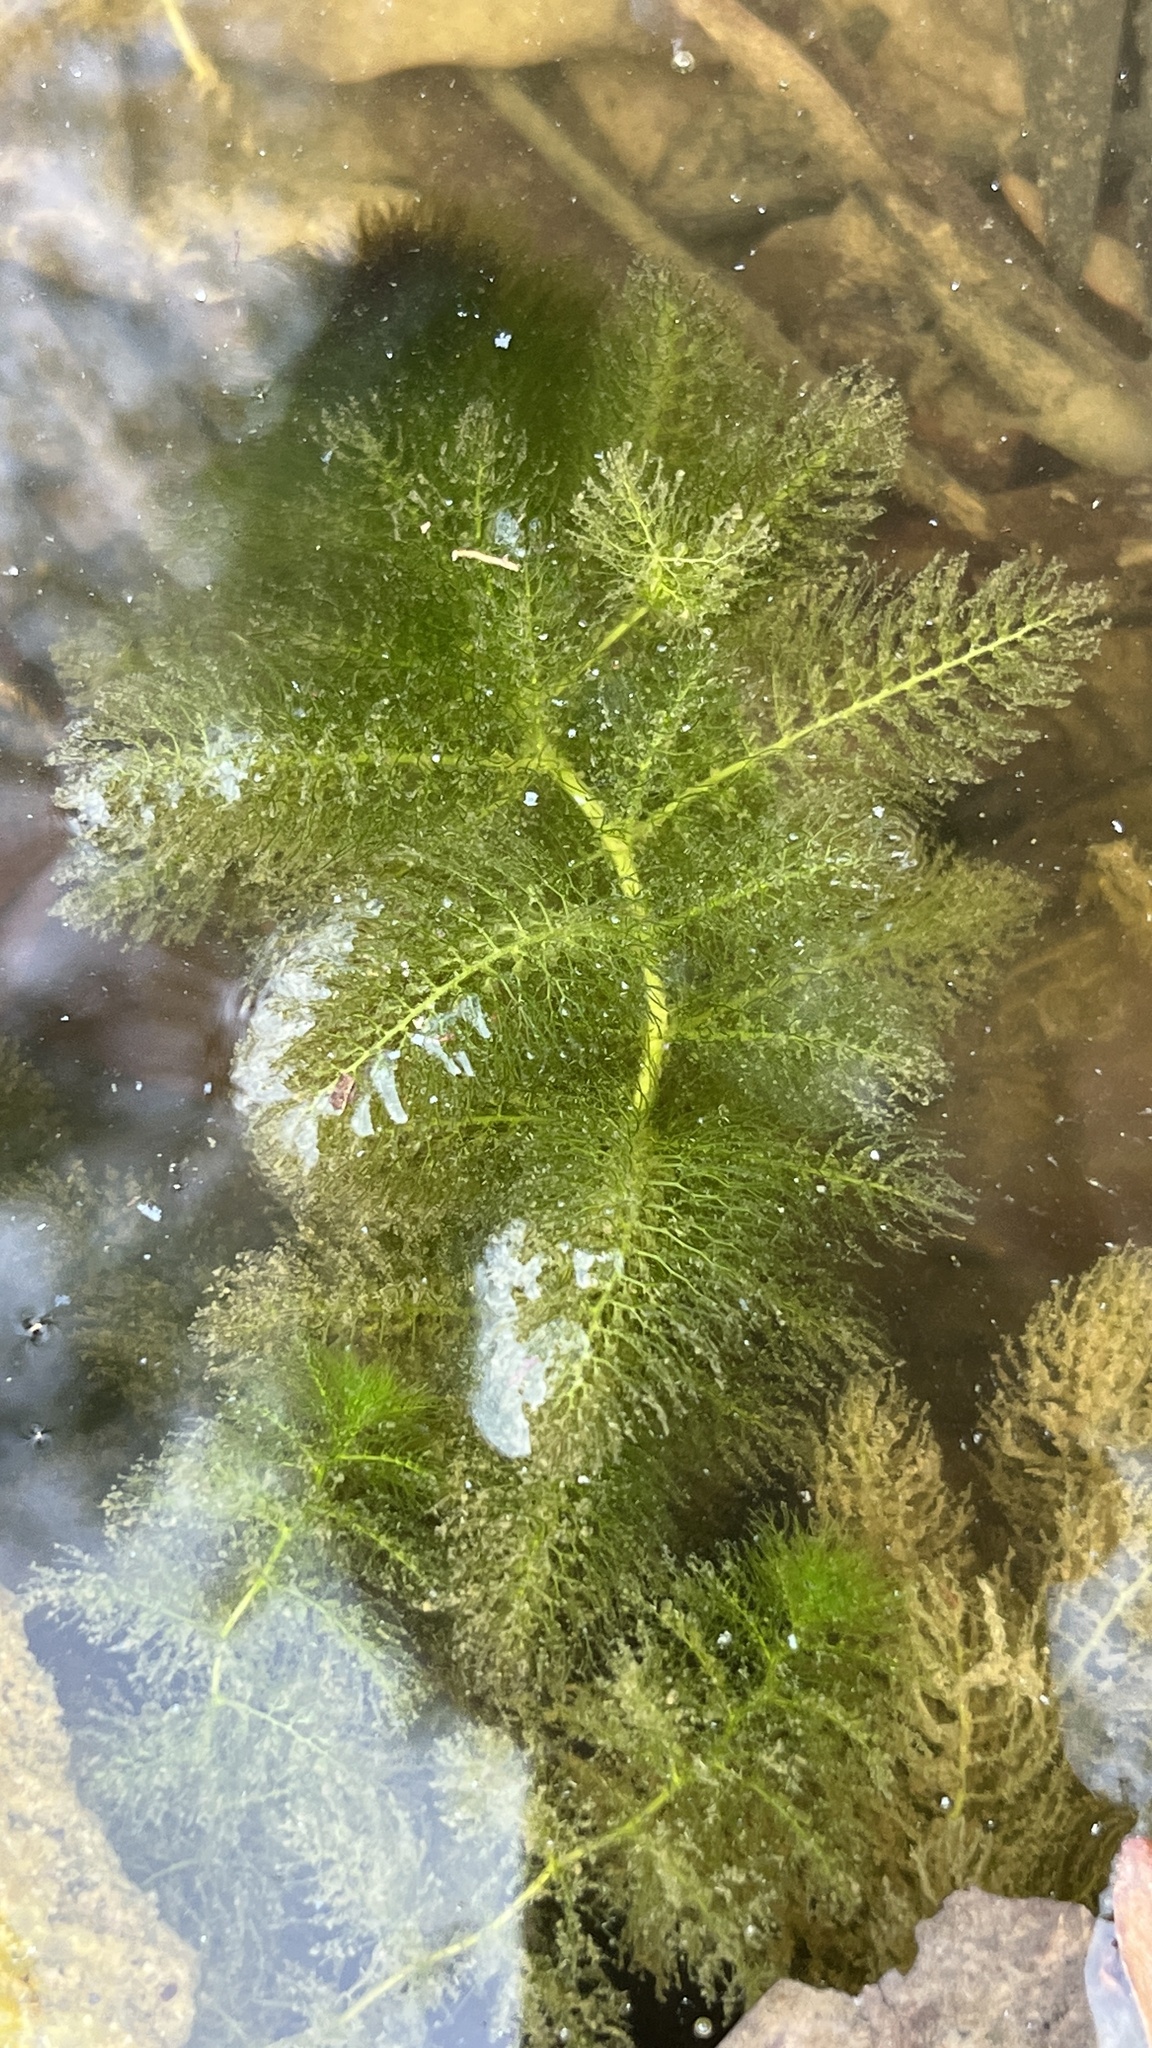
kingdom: Plantae
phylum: Tracheophyta
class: Magnoliopsida
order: Lamiales
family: Lentibulariaceae
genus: Utricularia
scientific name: Utricularia aurea
